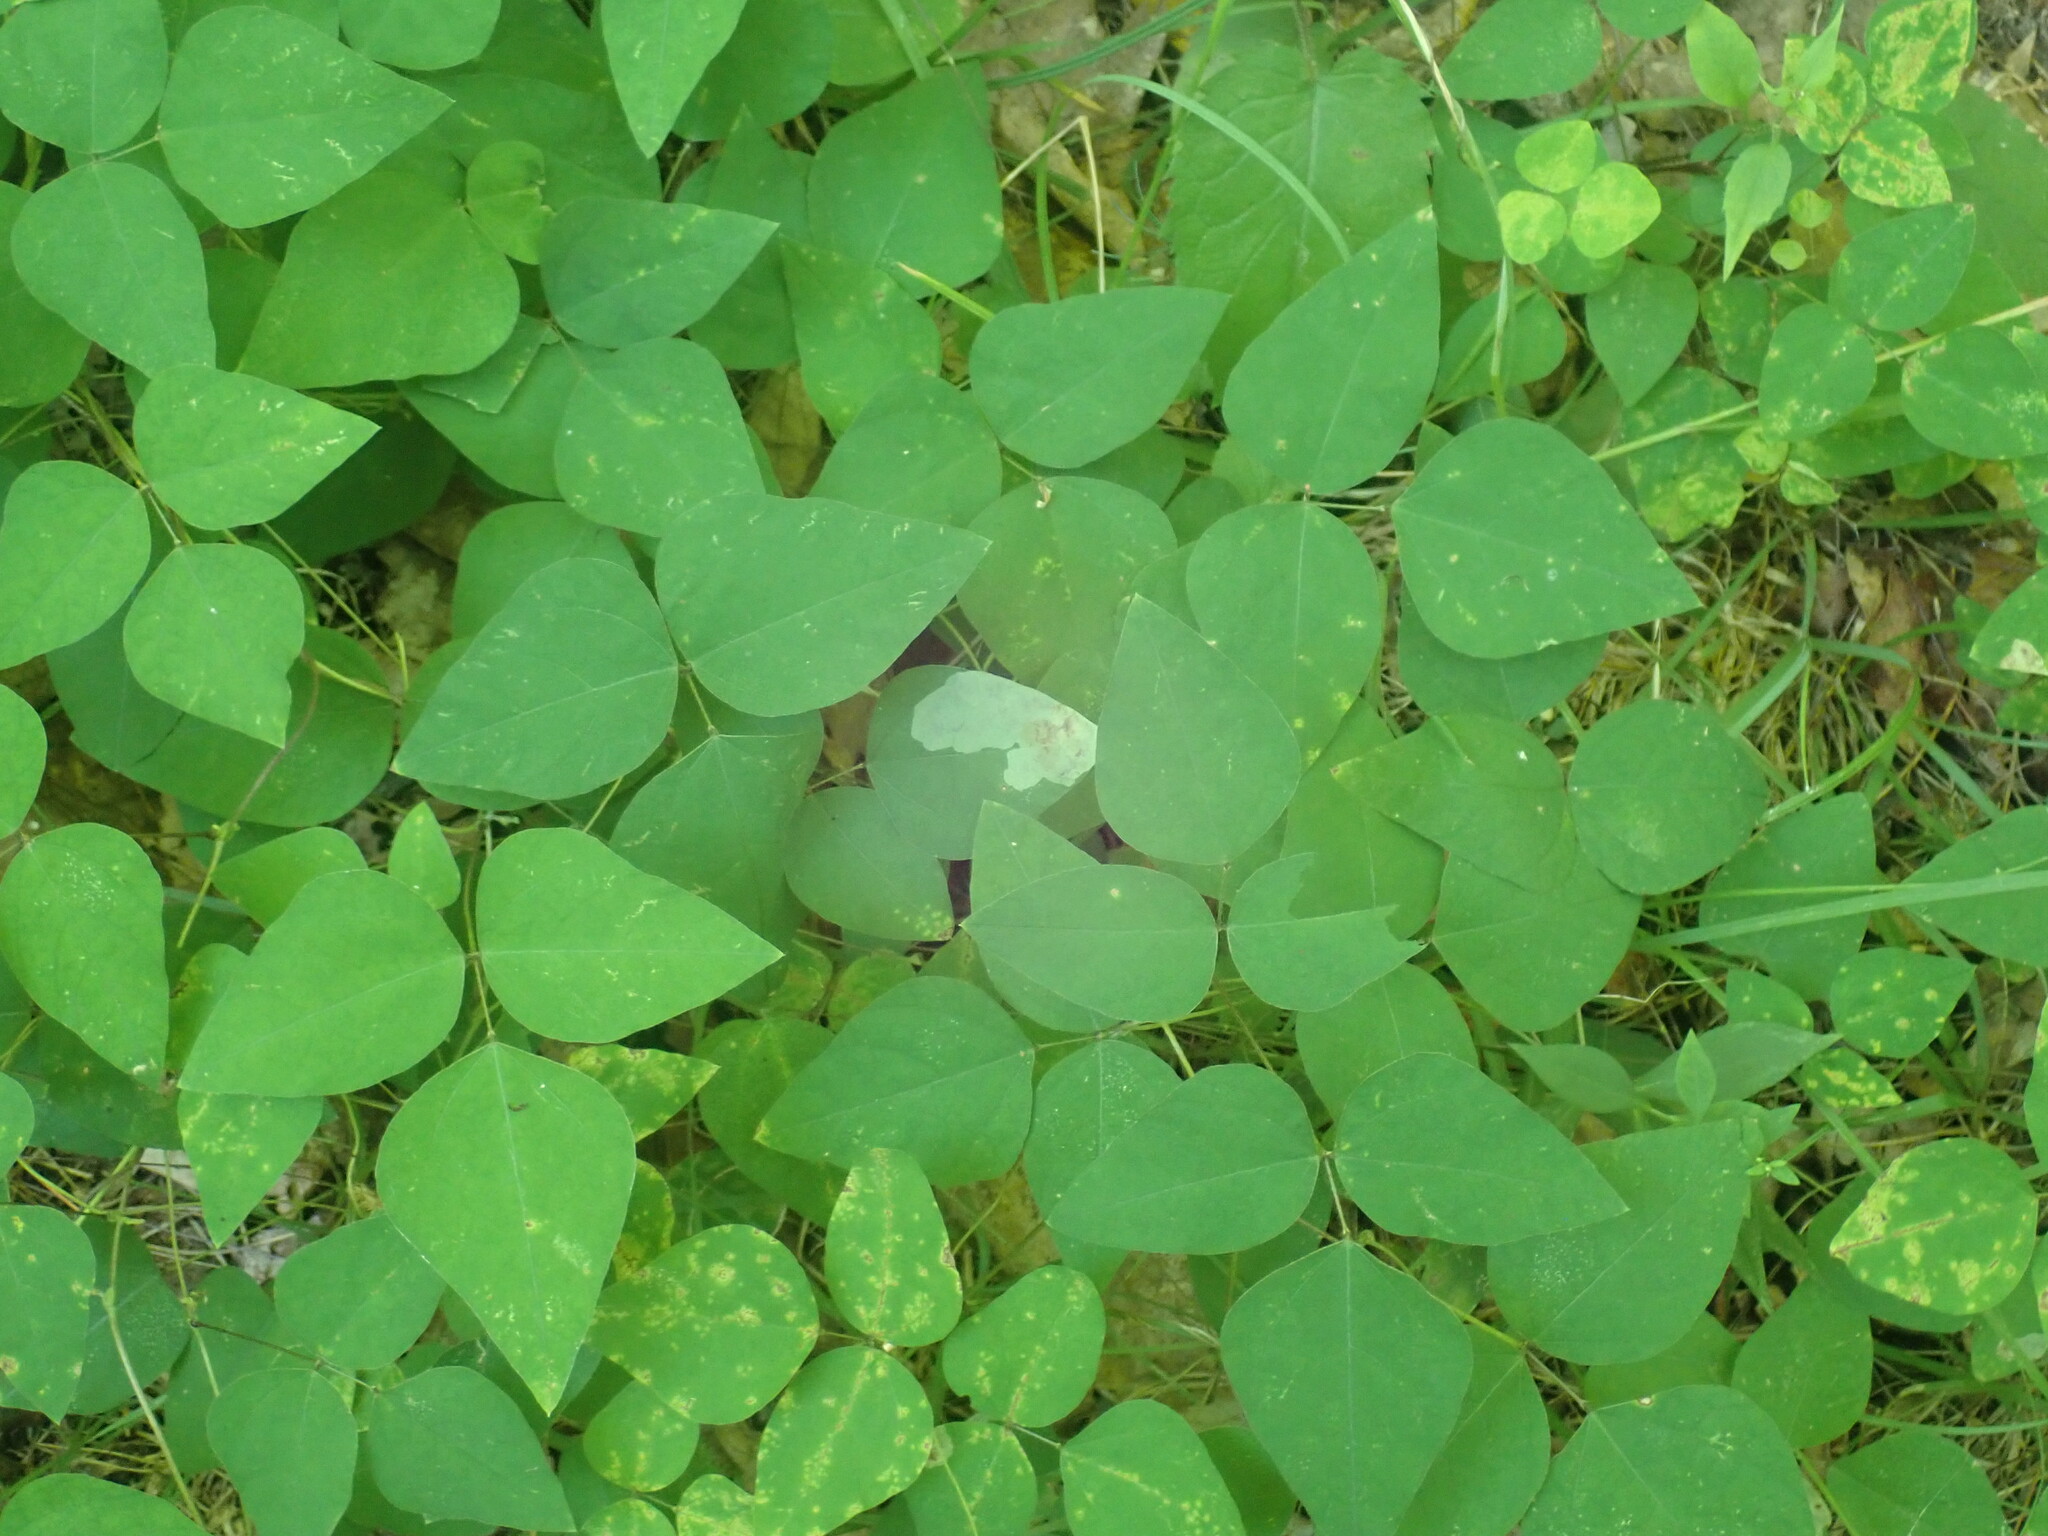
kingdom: Plantae
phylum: Tracheophyta
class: Magnoliopsida
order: Fabales
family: Fabaceae
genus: Amphicarpaea
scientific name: Amphicarpaea bracteata
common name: American hog peanut
